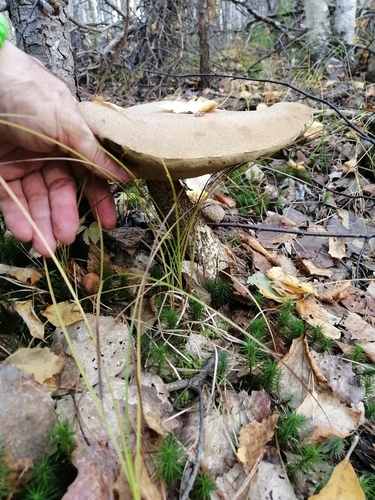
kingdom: Fungi
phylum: Basidiomycota
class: Agaricomycetes
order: Boletales
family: Boletaceae
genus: Leccinum
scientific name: Leccinum scabrum
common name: Blushing bolete
